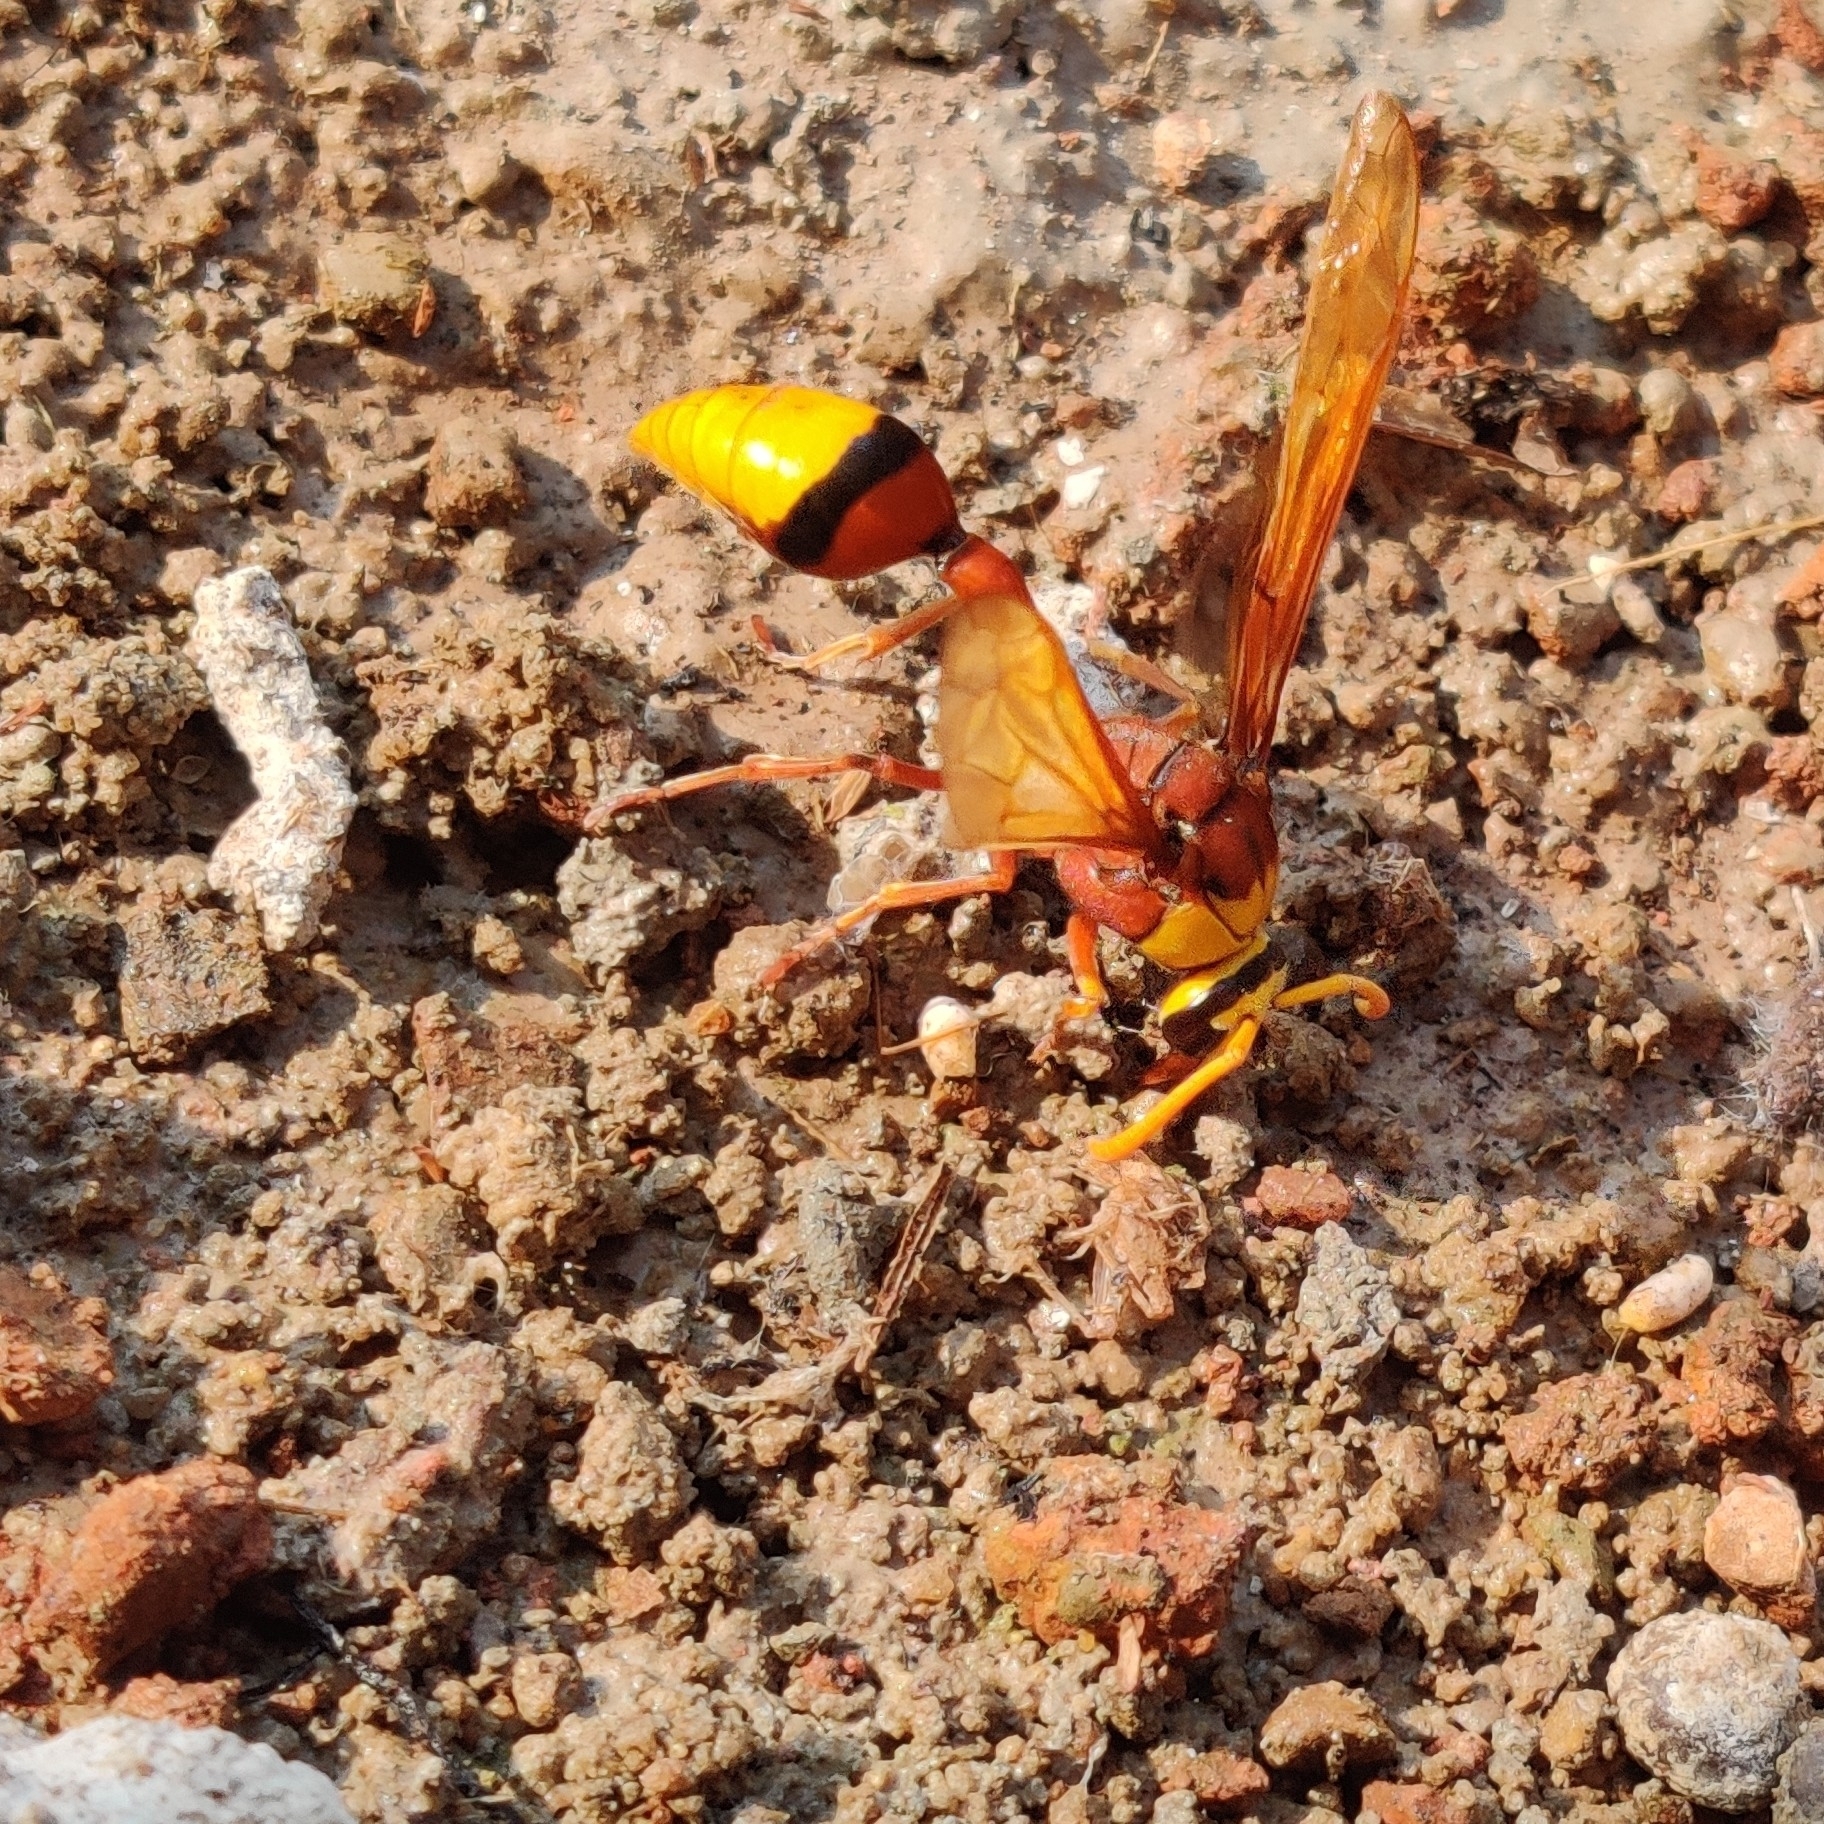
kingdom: Animalia
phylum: Arthropoda
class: Insecta
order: Hymenoptera
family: Eumenidae
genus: Delta
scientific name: Delta pyriforme
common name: Wasp
